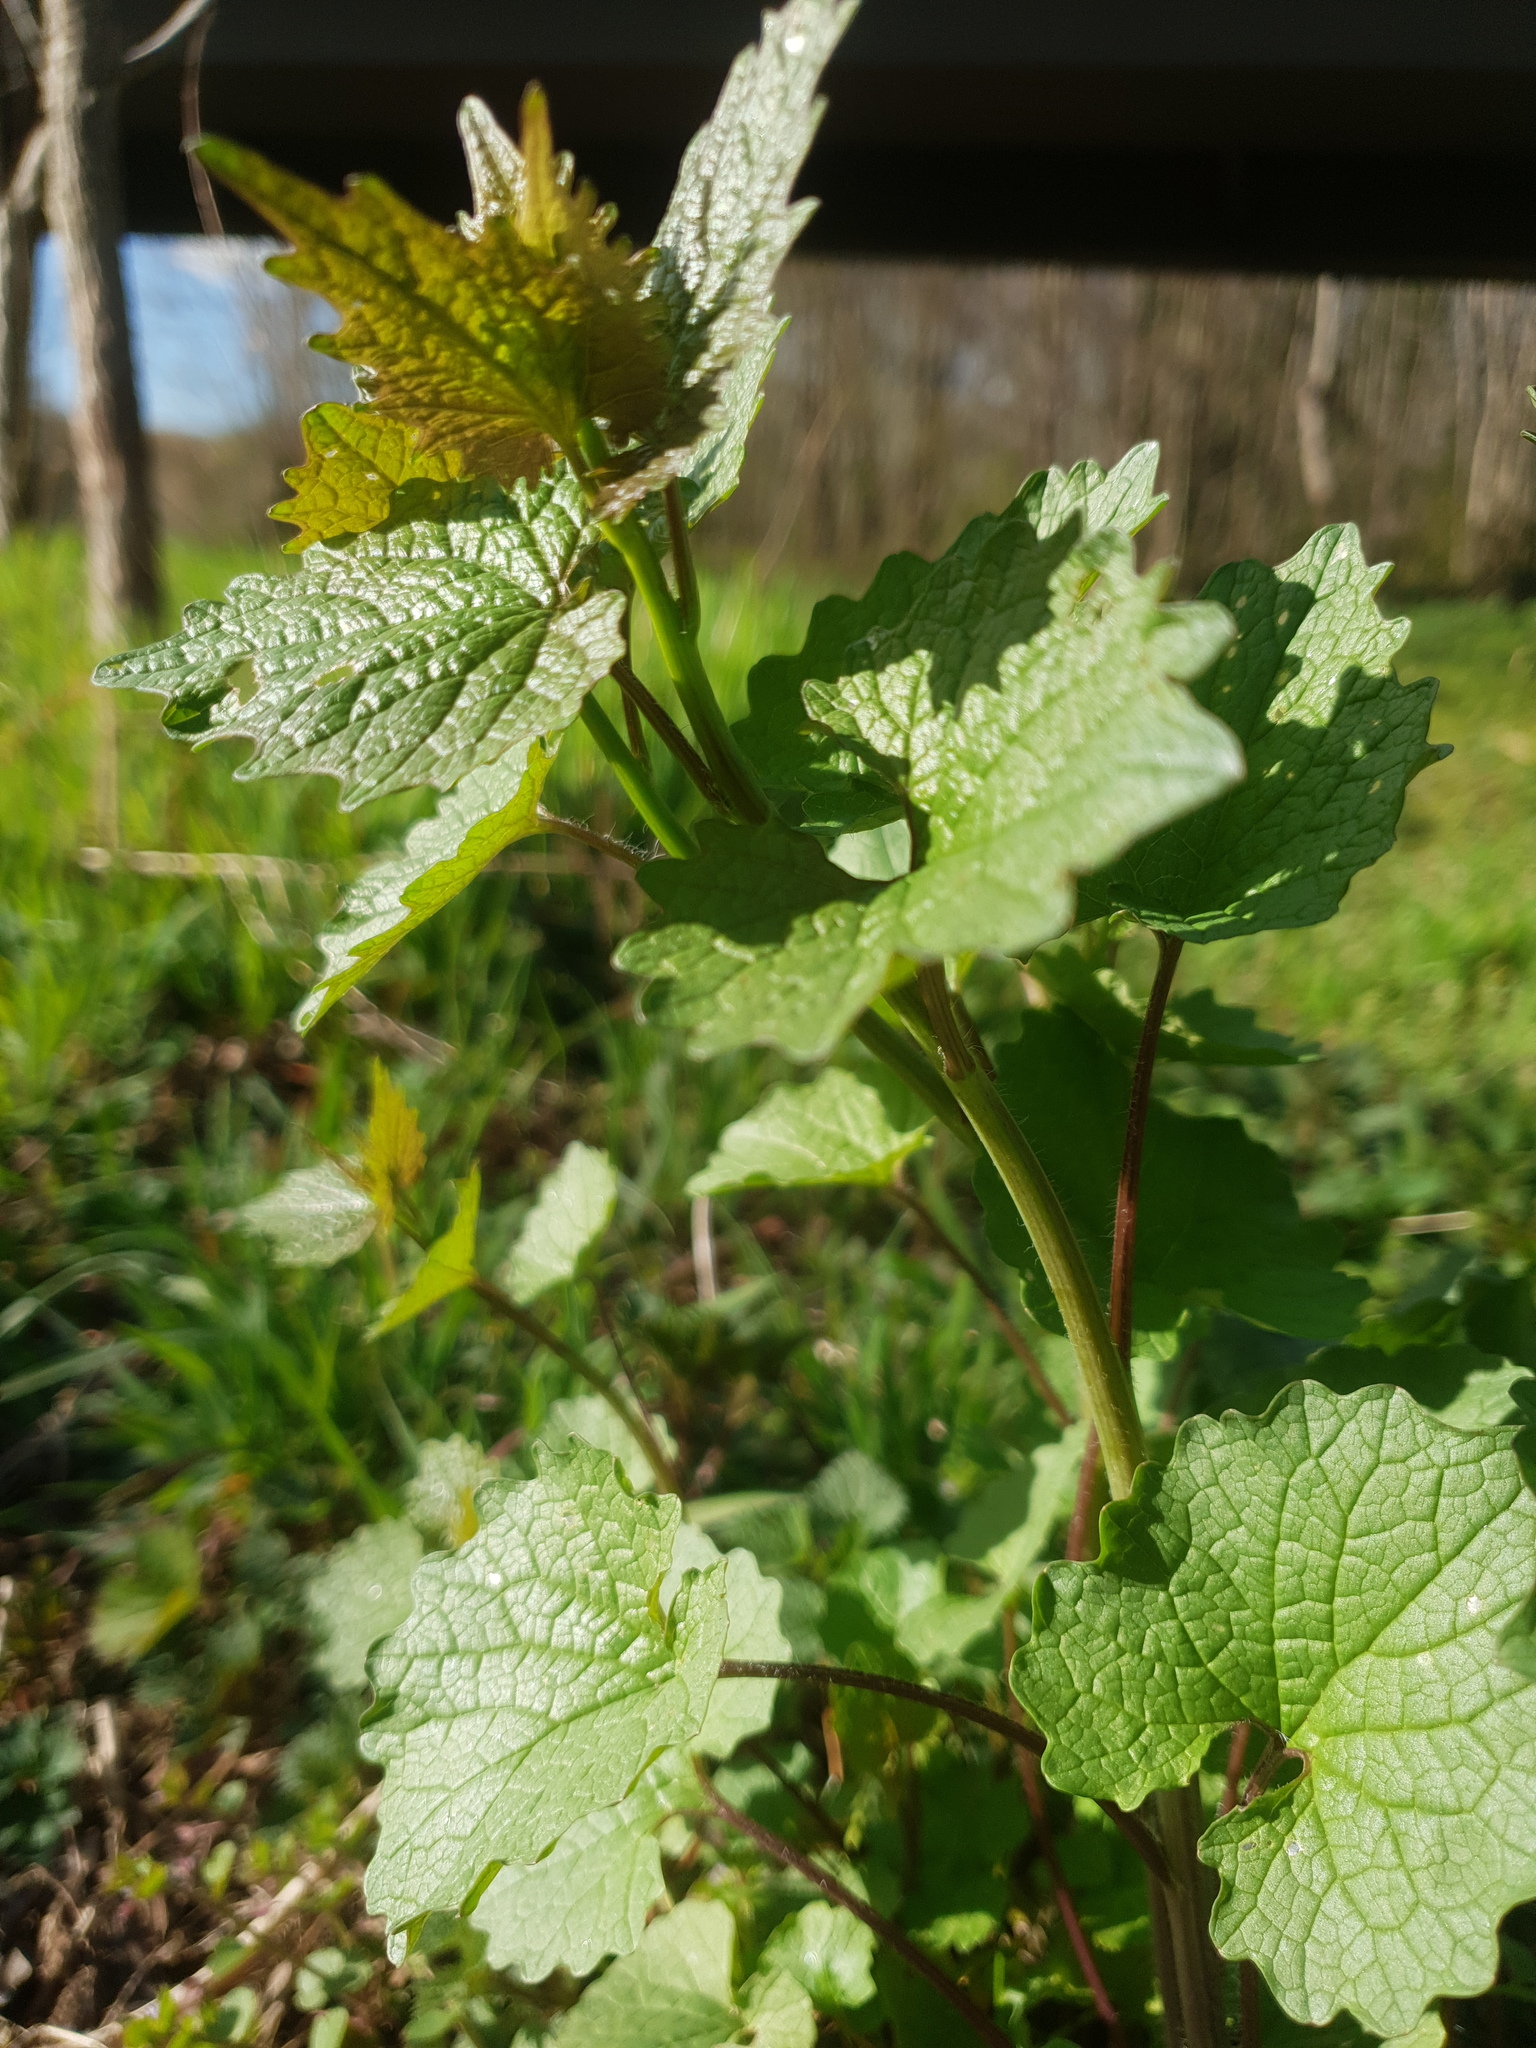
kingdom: Plantae
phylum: Tracheophyta
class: Magnoliopsida
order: Brassicales
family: Brassicaceae
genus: Alliaria
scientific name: Alliaria petiolata
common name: Garlic mustard
